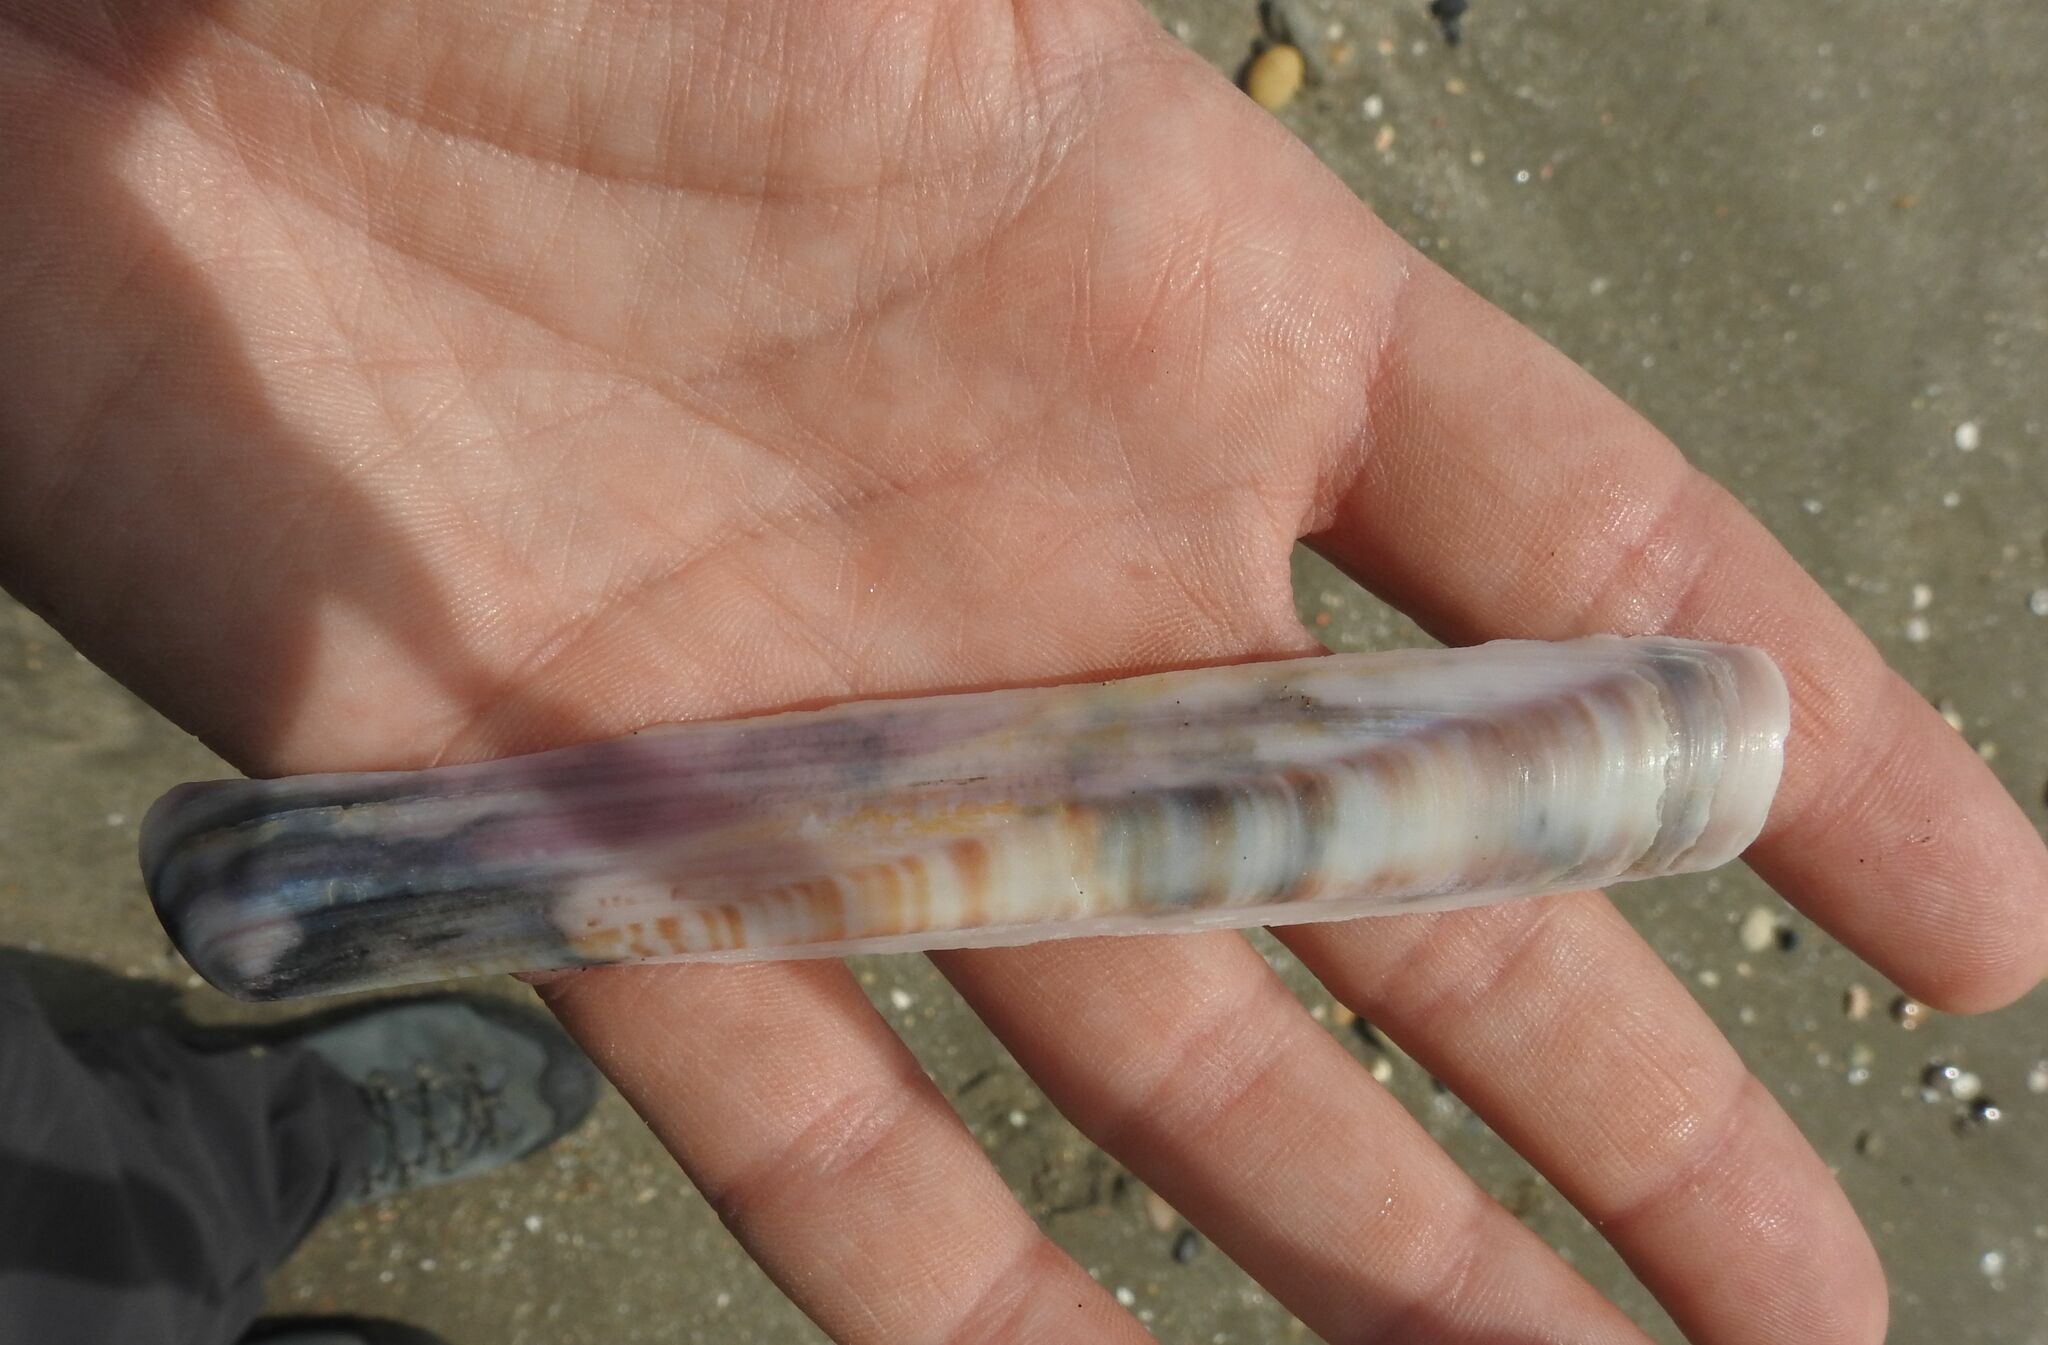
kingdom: Animalia
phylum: Mollusca
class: Bivalvia
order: Adapedonta
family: Pharidae
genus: Ensis
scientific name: Ensis minor
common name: Minor jackknife clam
